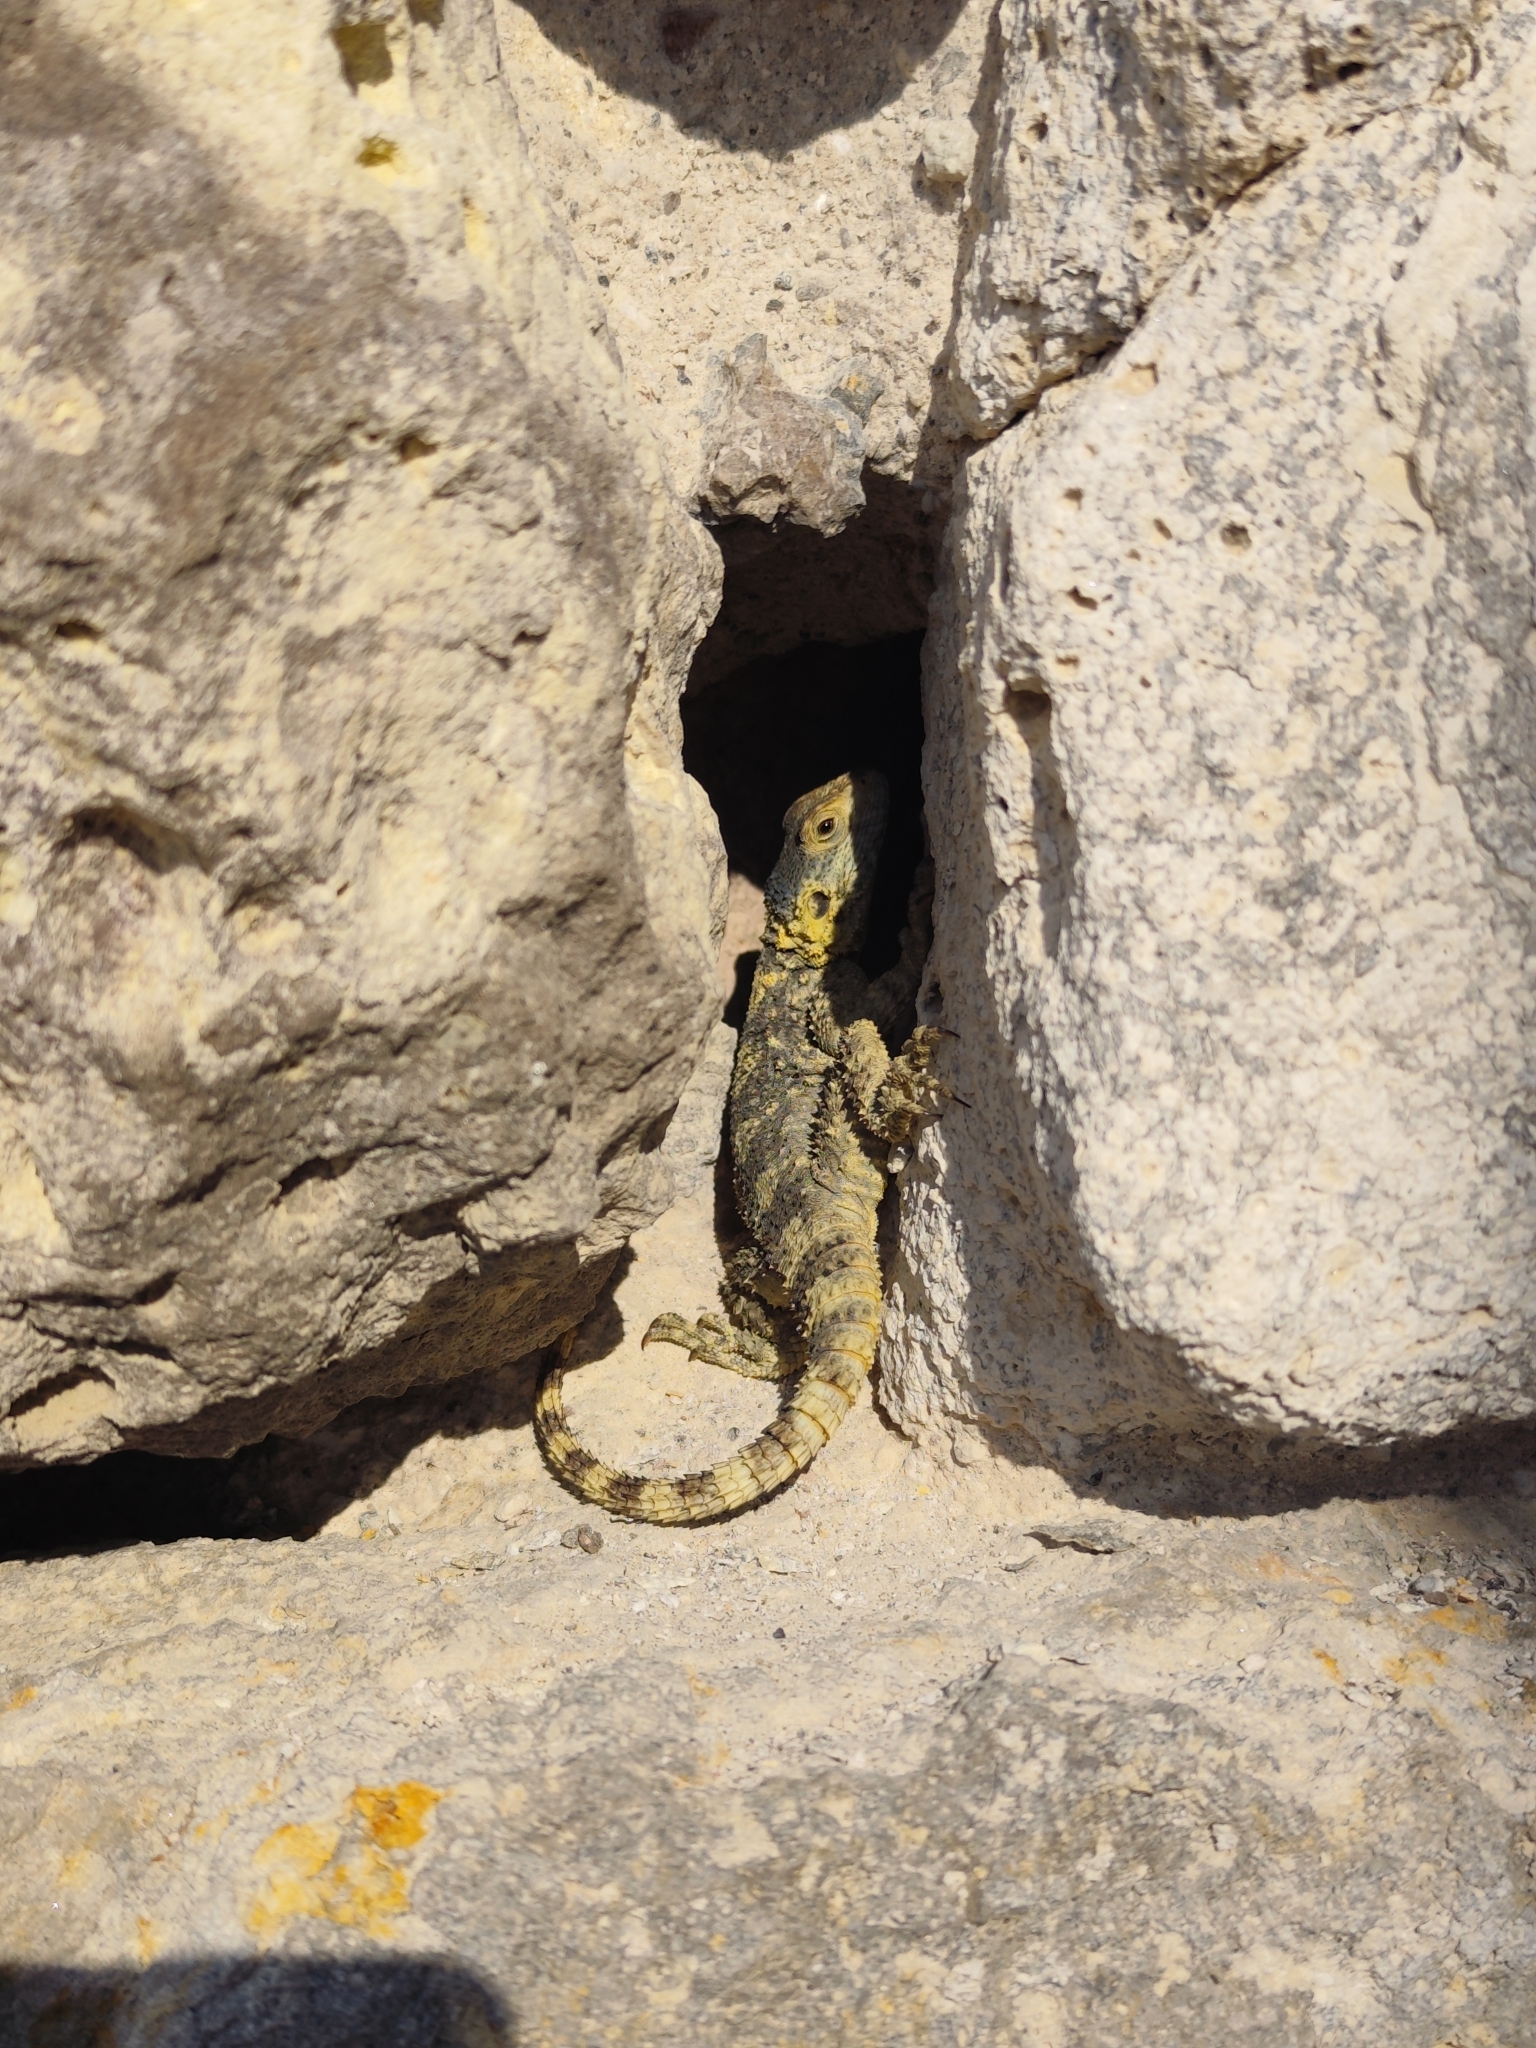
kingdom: Animalia
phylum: Chordata
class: Squamata
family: Agamidae
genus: Stellagama
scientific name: Stellagama stellio
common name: Starred agama
